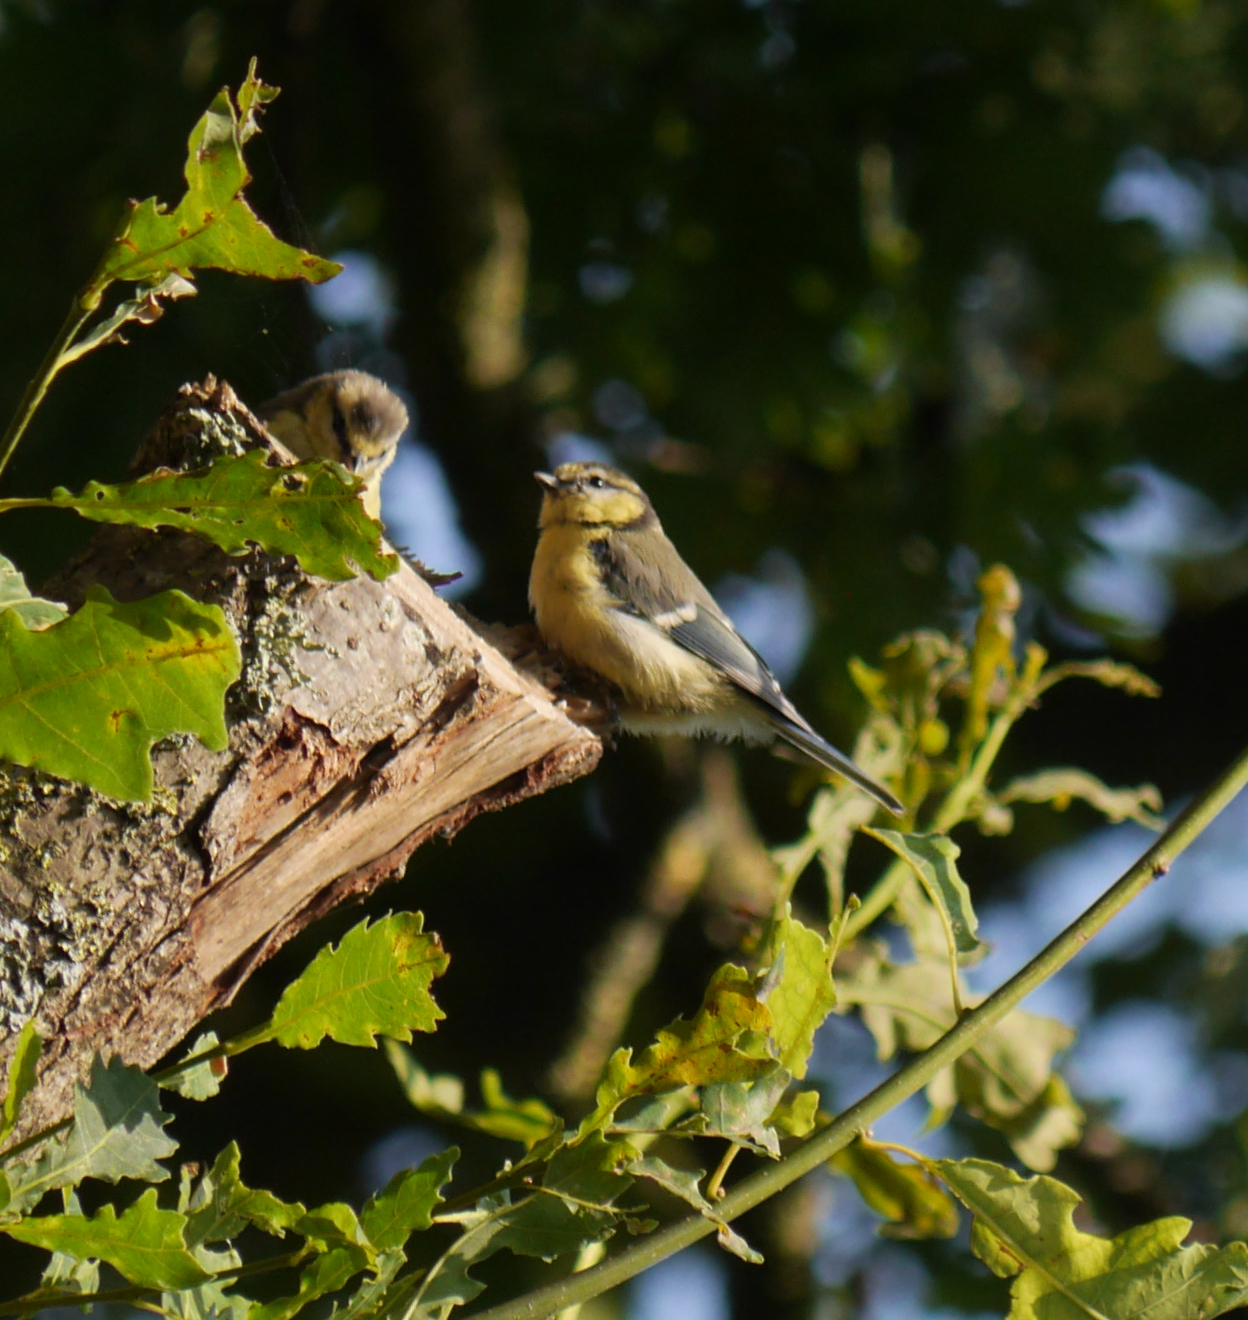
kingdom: Animalia
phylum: Chordata
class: Aves
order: Passeriformes
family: Paridae
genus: Cyanistes
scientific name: Cyanistes caeruleus
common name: Eurasian blue tit
